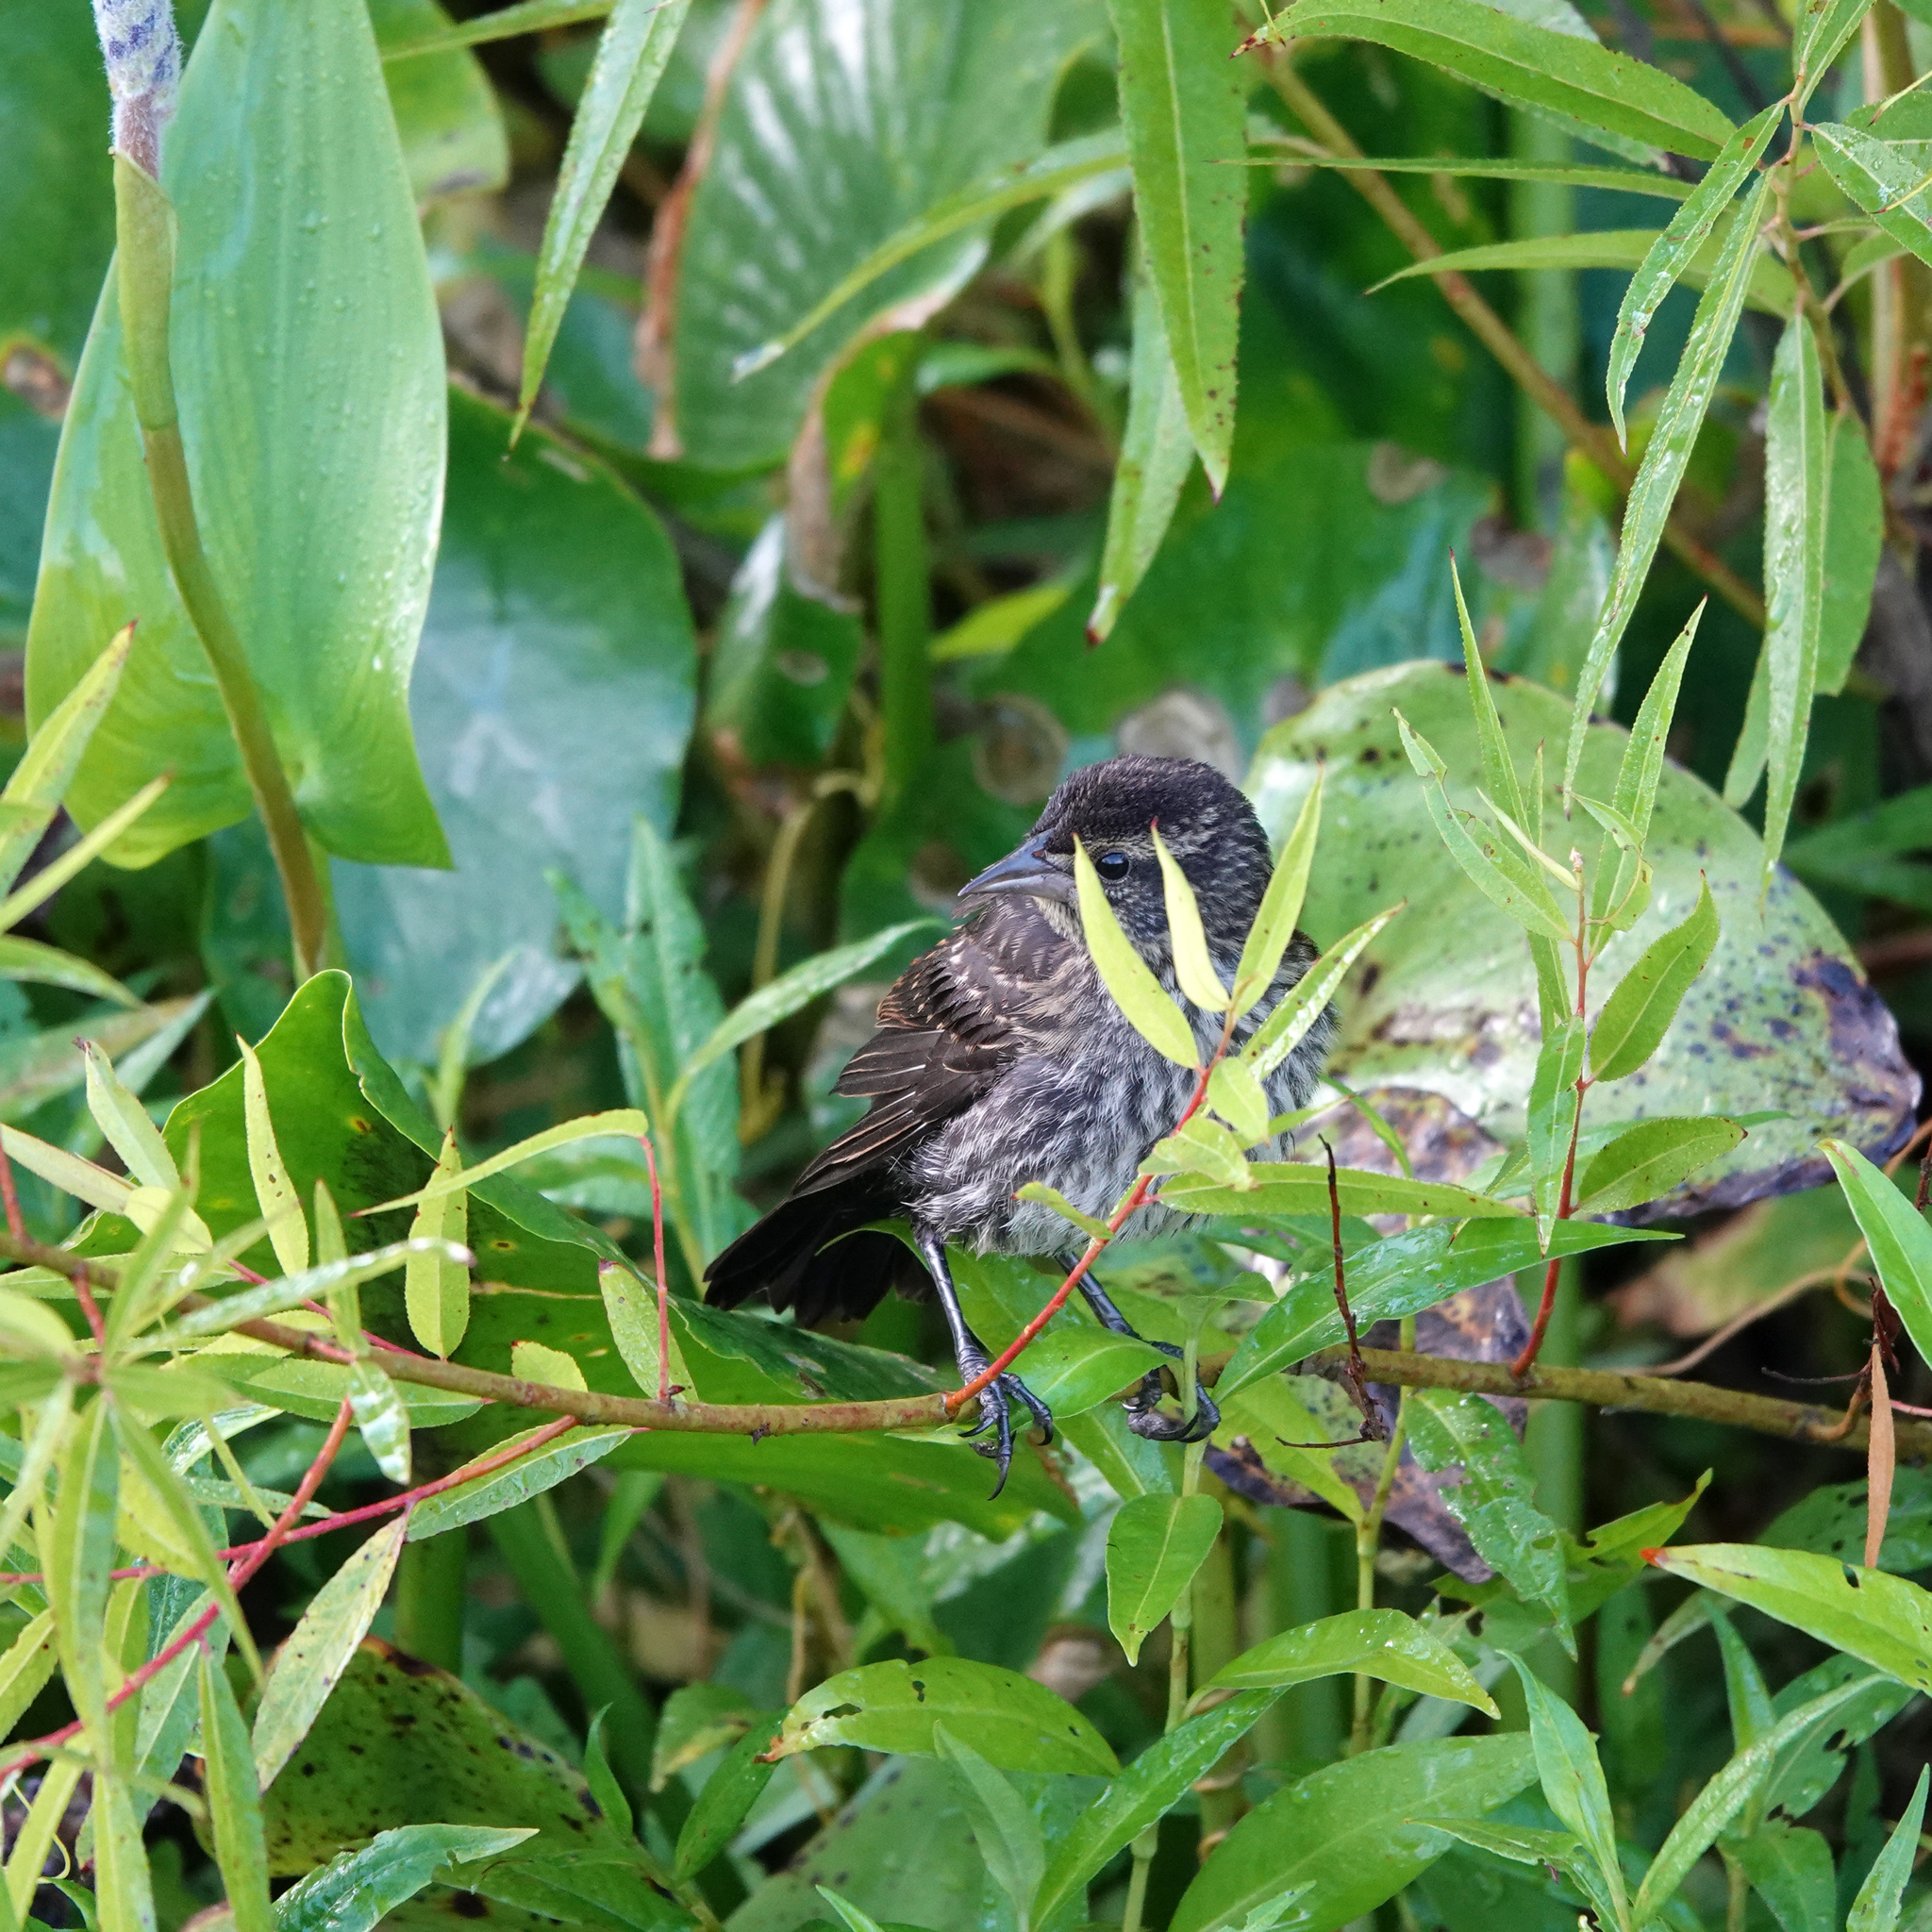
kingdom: Animalia
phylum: Chordata
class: Aves
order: Passeriformes
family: Icteridae
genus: Agelaius
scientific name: Agelaius phoeniceus
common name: Red-winged blackbird
